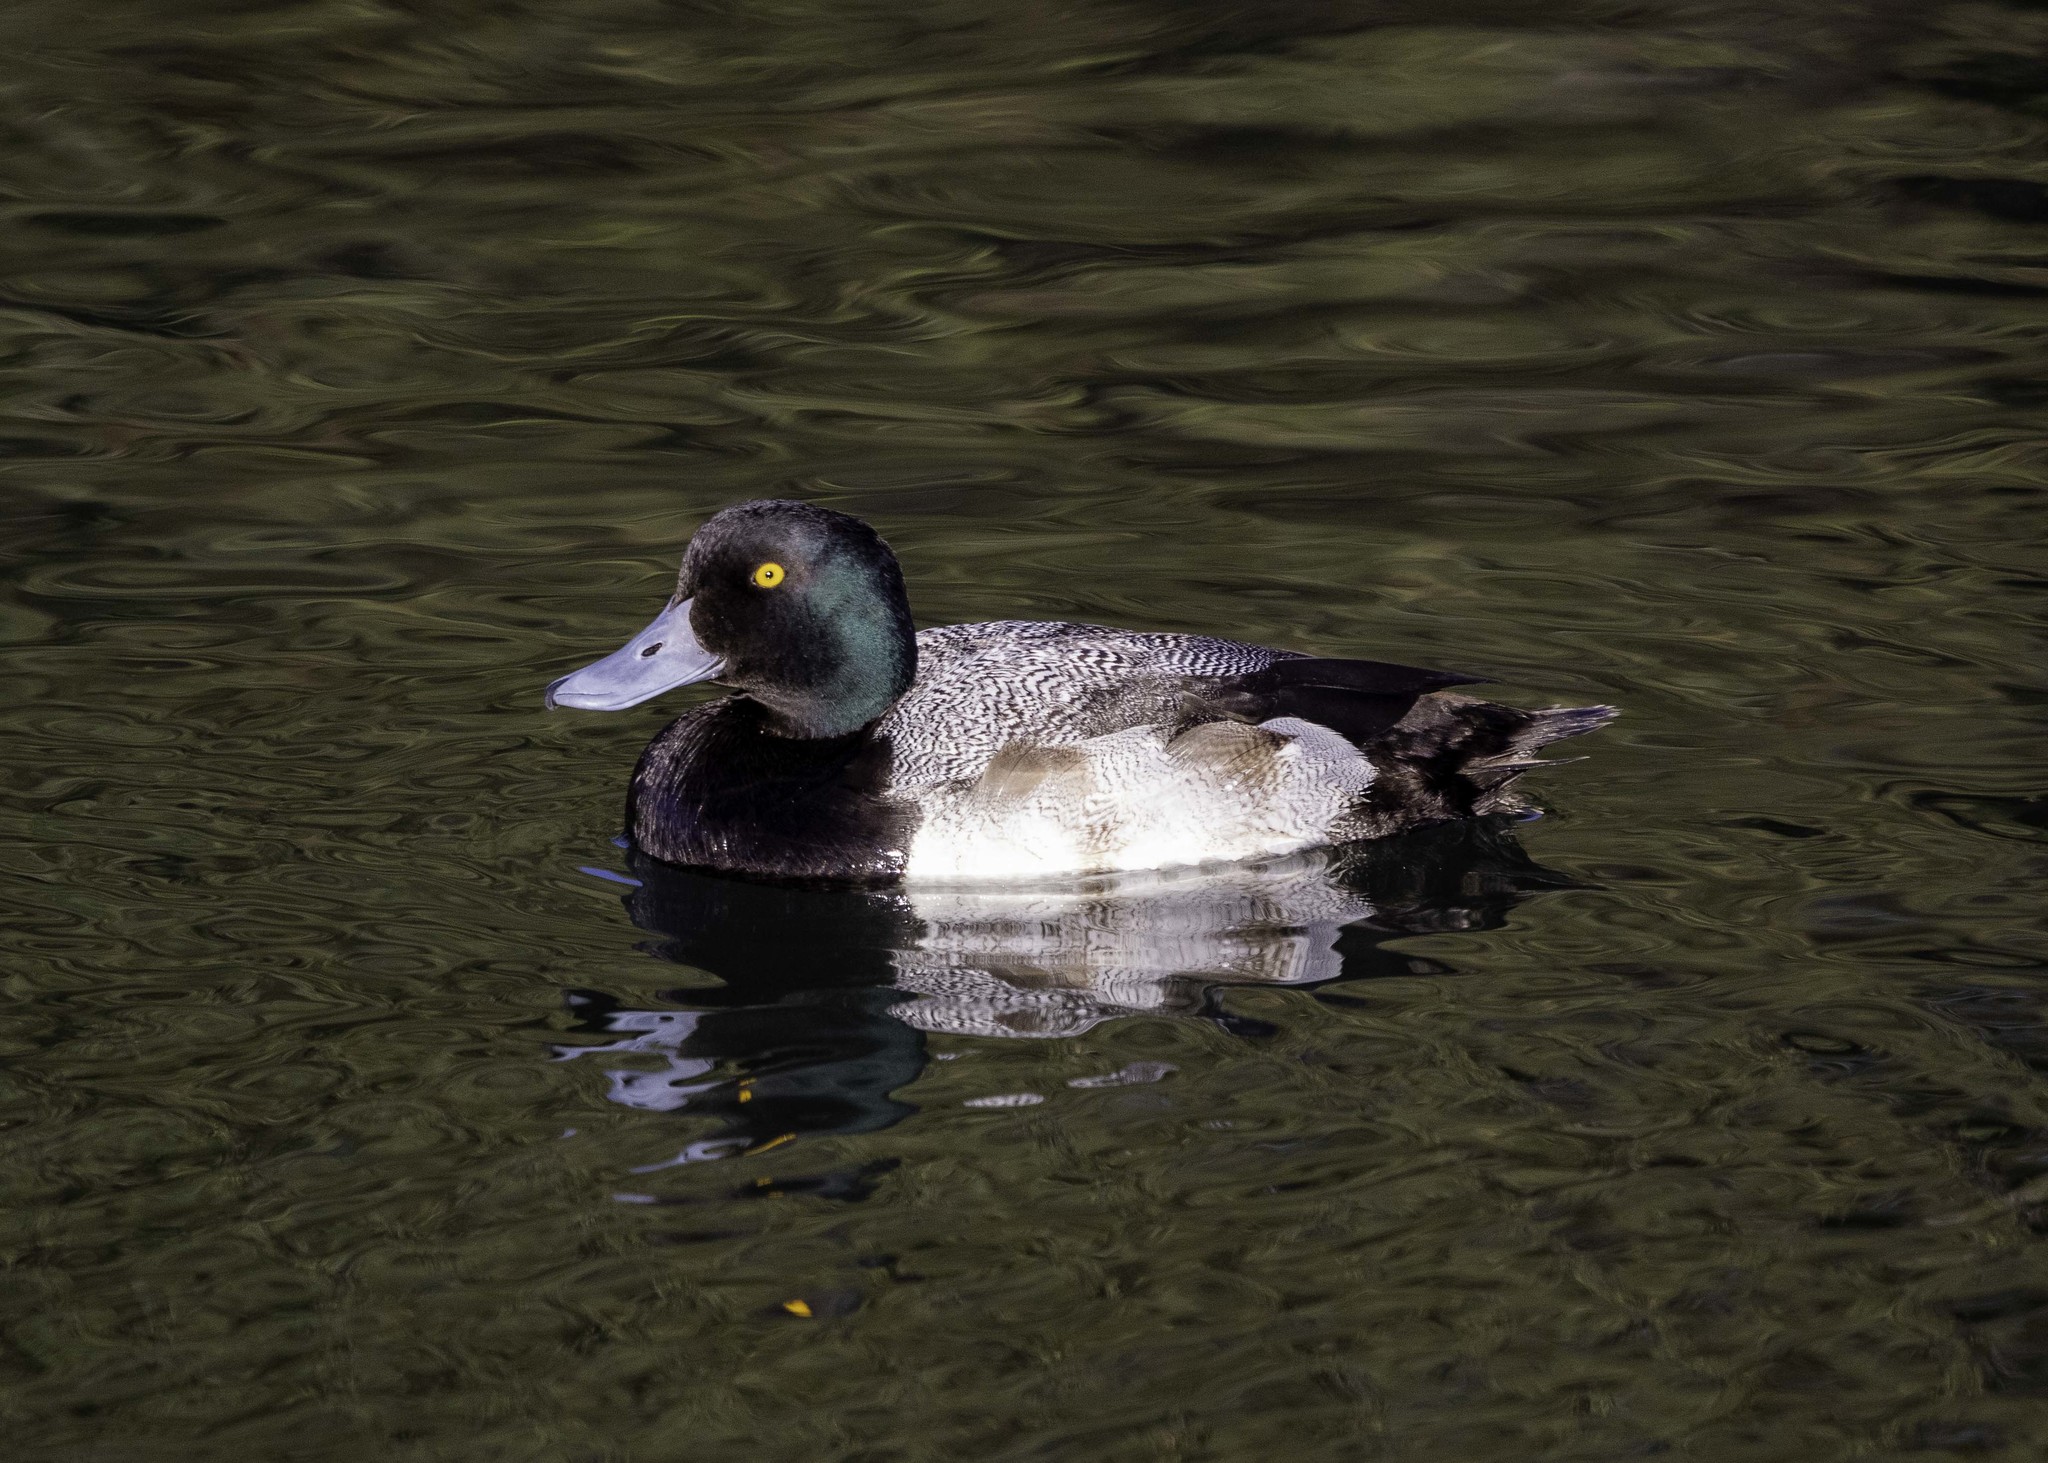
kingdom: Animalia
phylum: Chordata
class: Aves
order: Anseriformes
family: Anatidae
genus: Aythya
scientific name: Aythya marila
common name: Greater scaup
